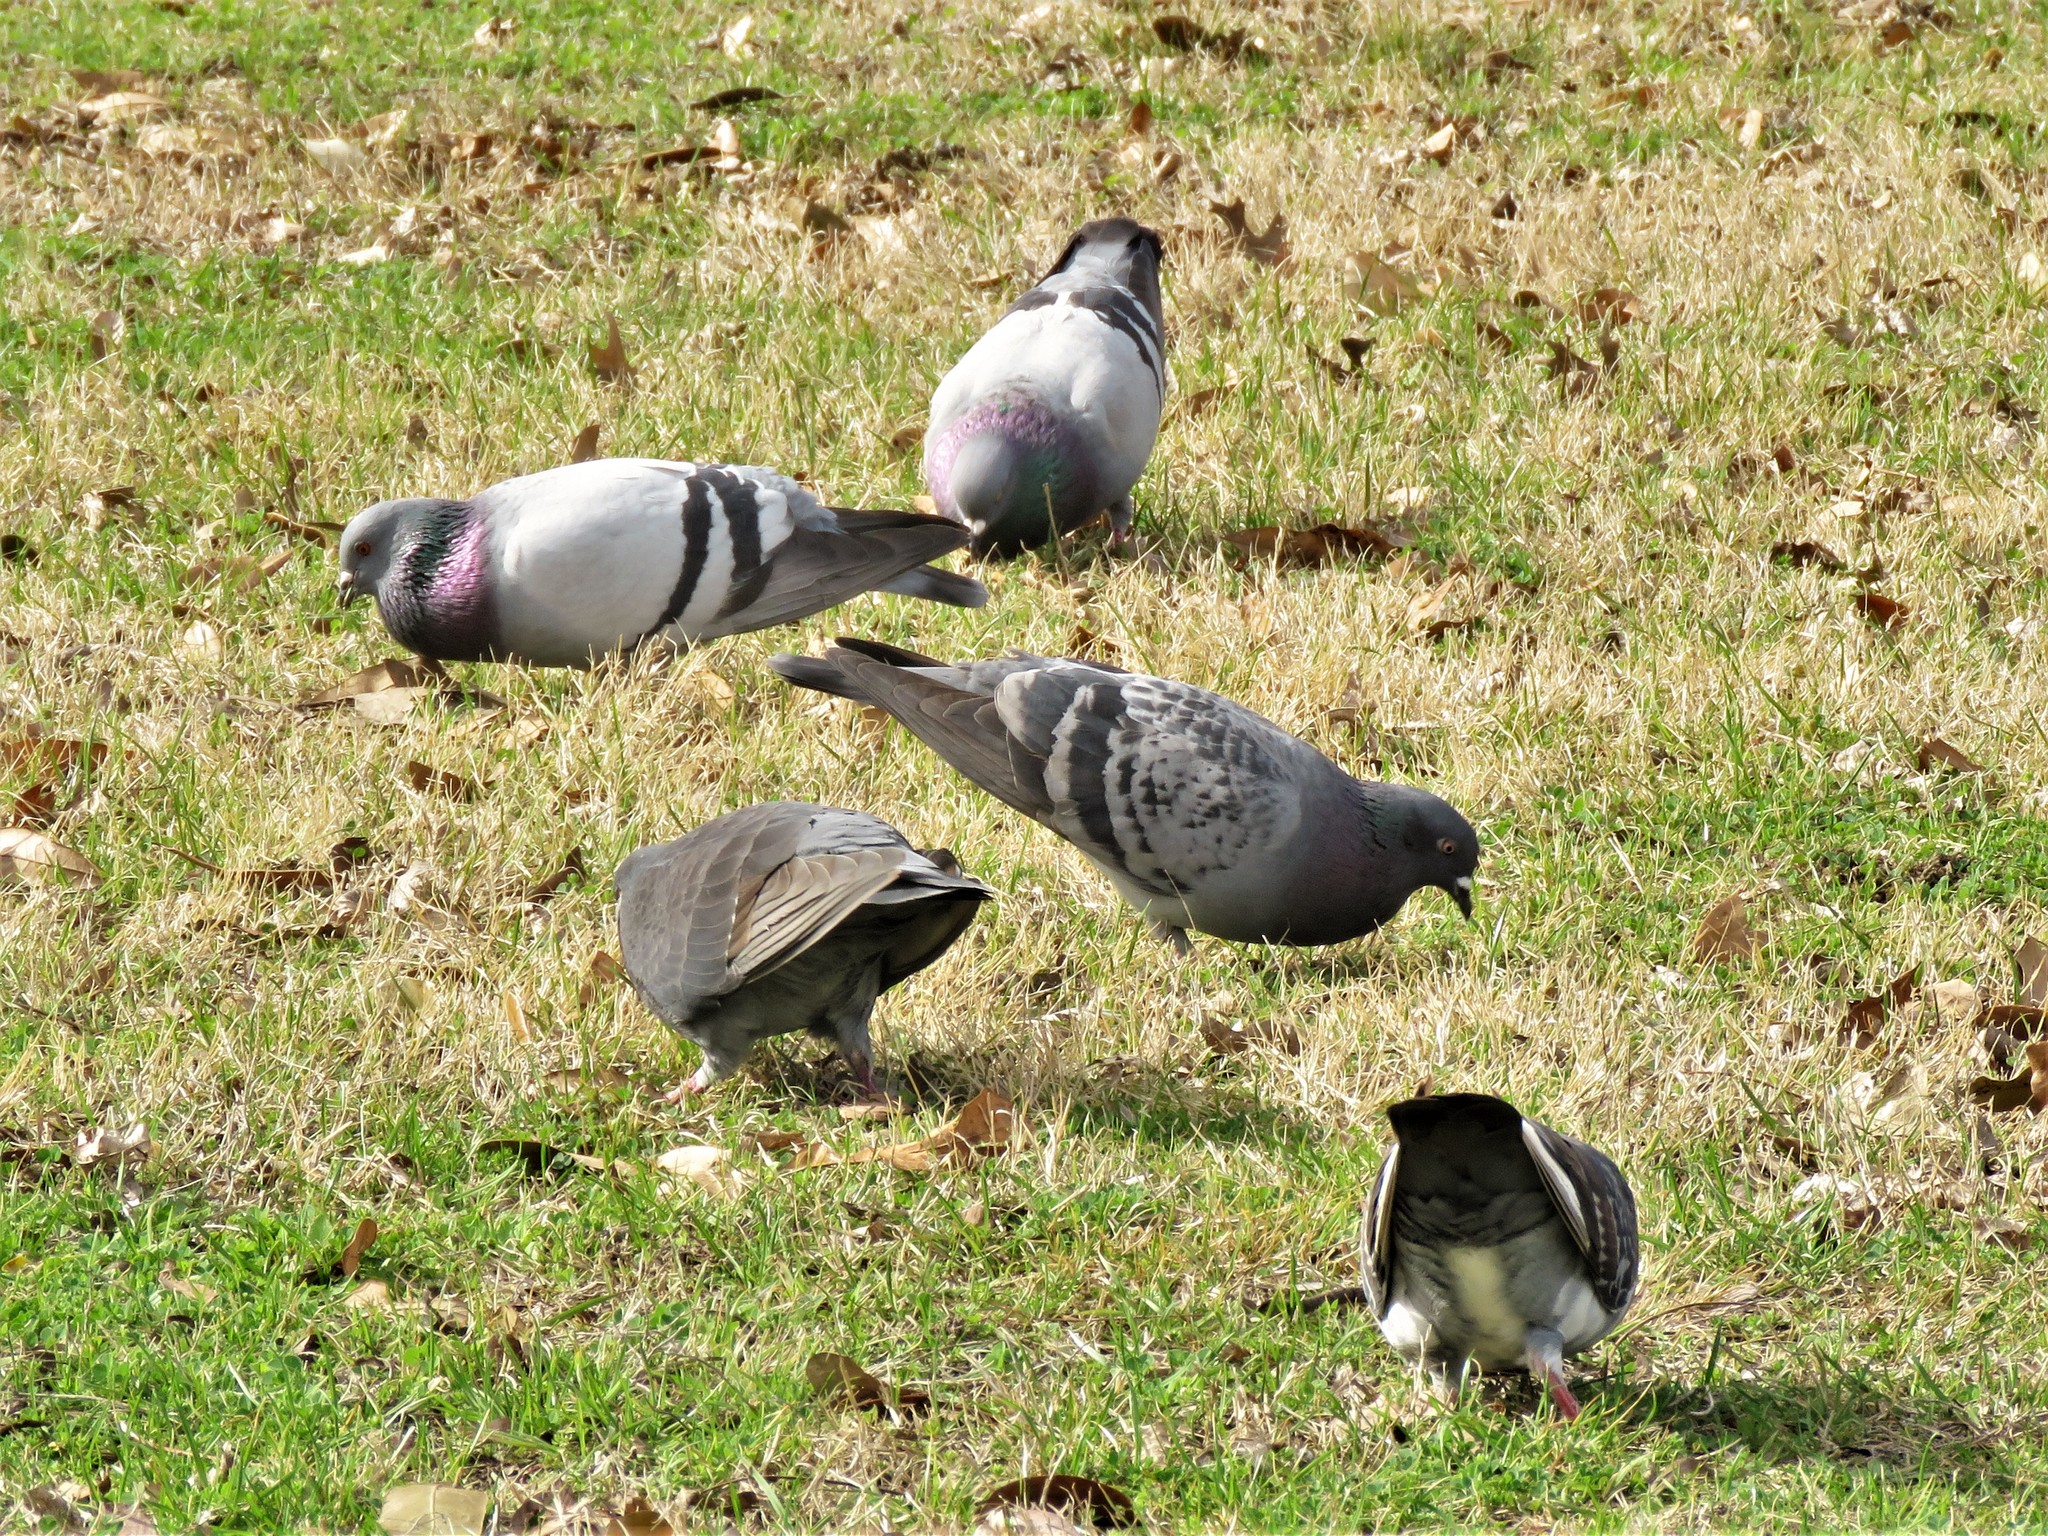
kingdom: Animalia
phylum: Chordata
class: Aves
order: Columbiformes
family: Columbidae
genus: Columba
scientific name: Columba livia
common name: Rock pigeon
